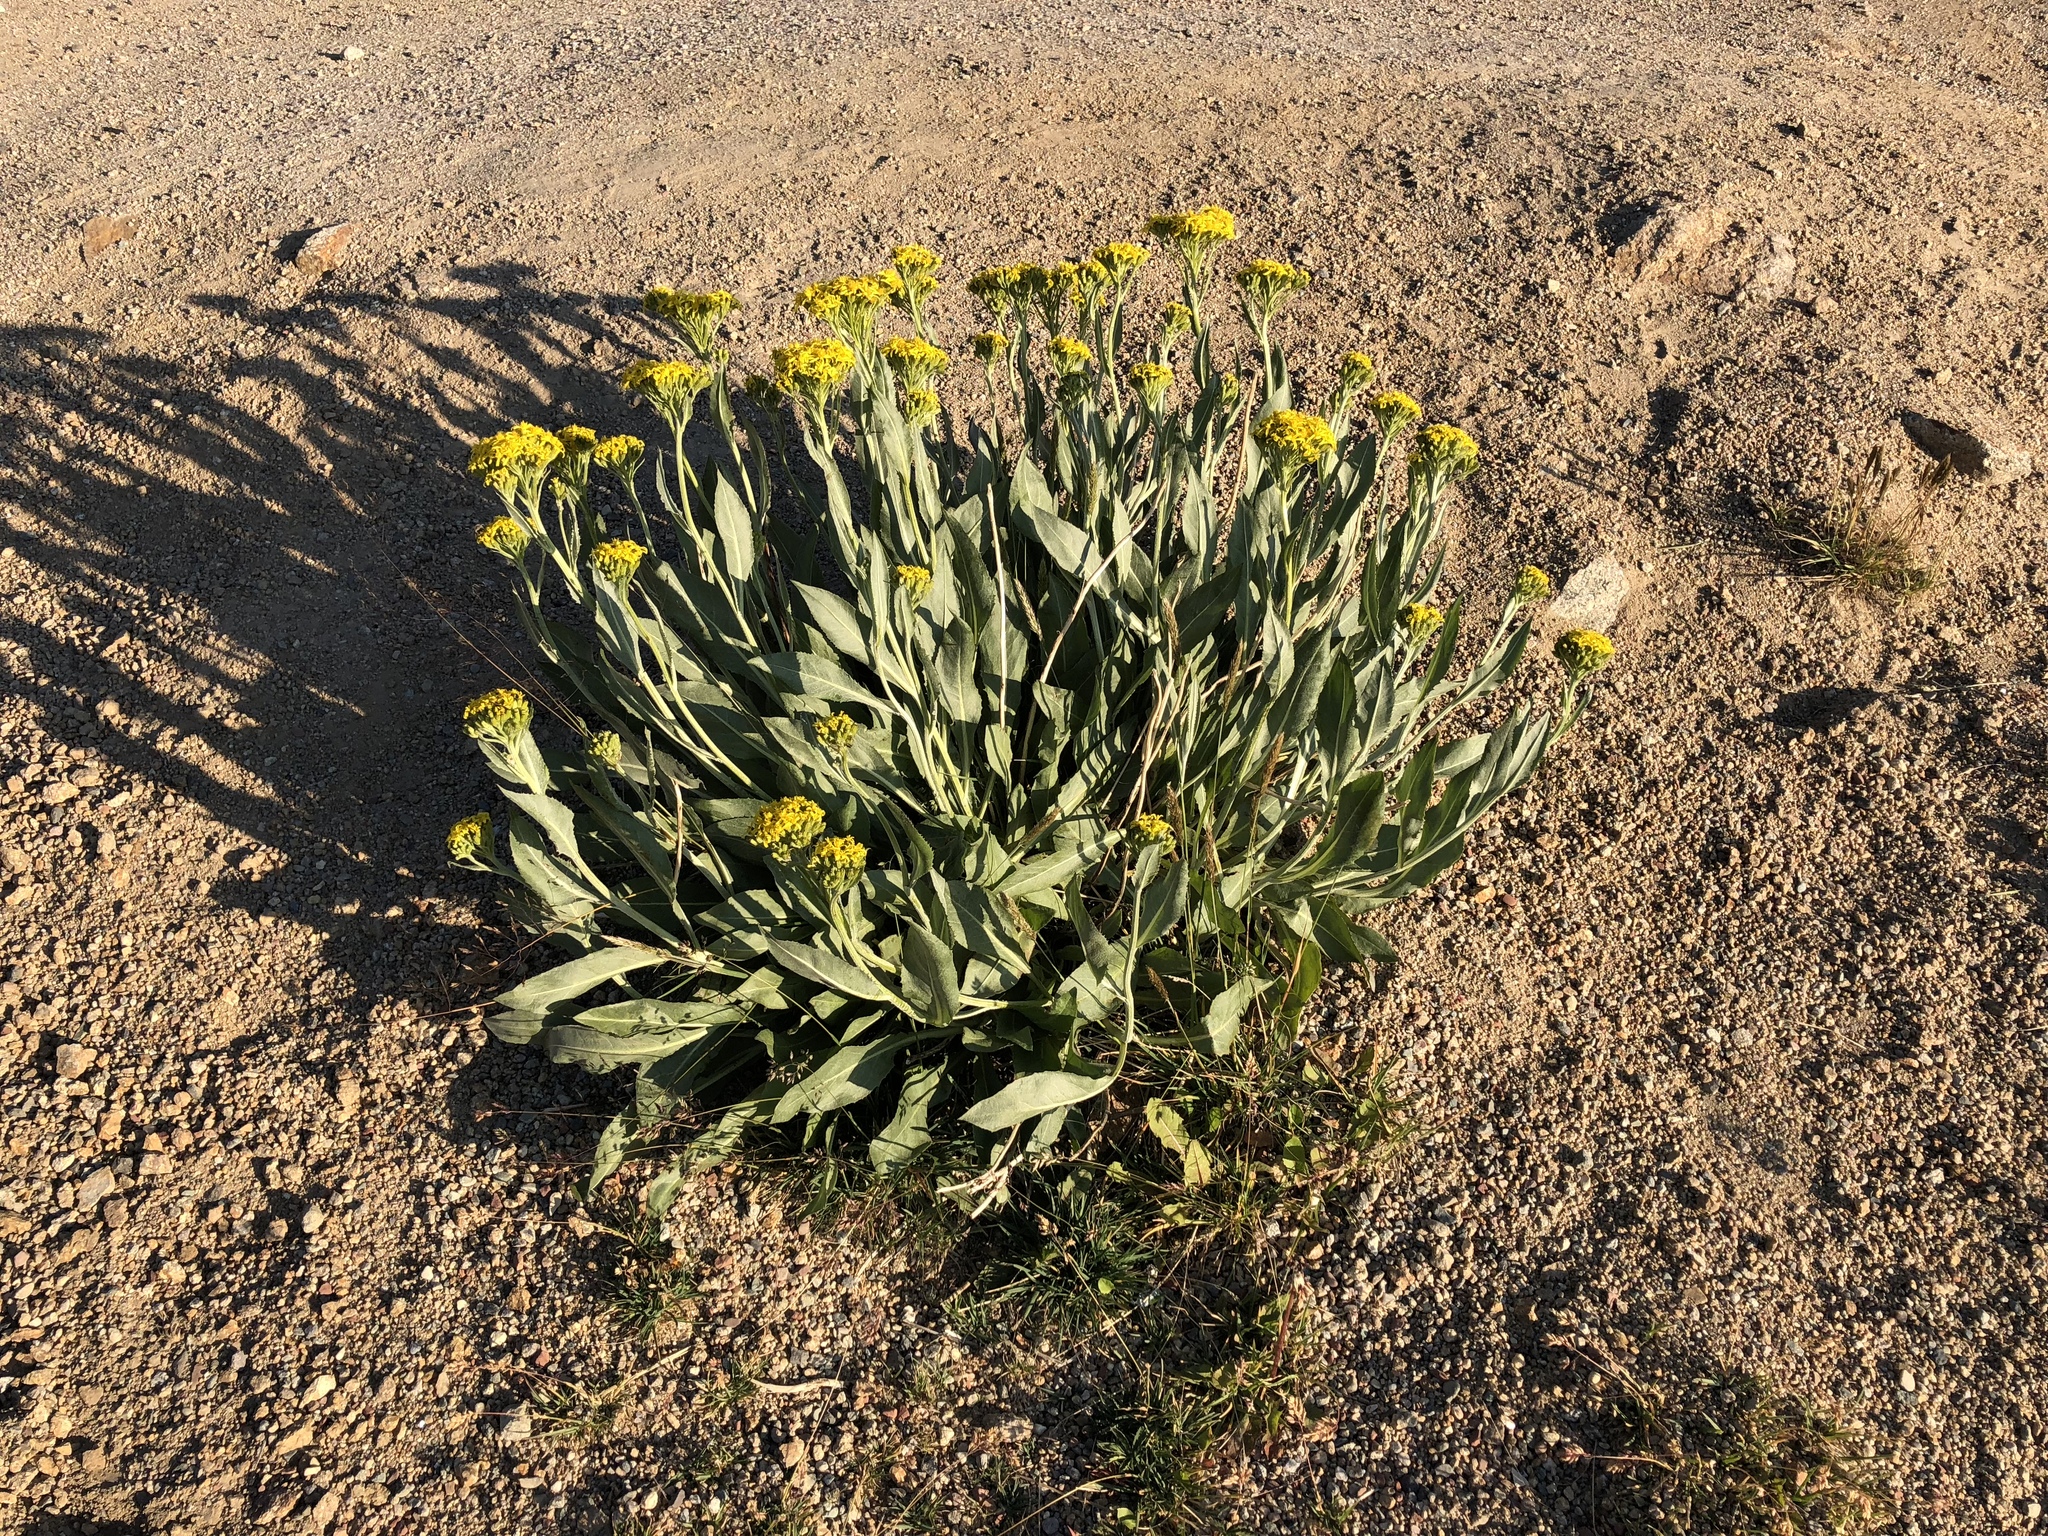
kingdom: Plantae
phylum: Tracheophyta
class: Magnoliopsida
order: Asterales
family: Asteraceae
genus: Senecio
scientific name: Senecio atratus
